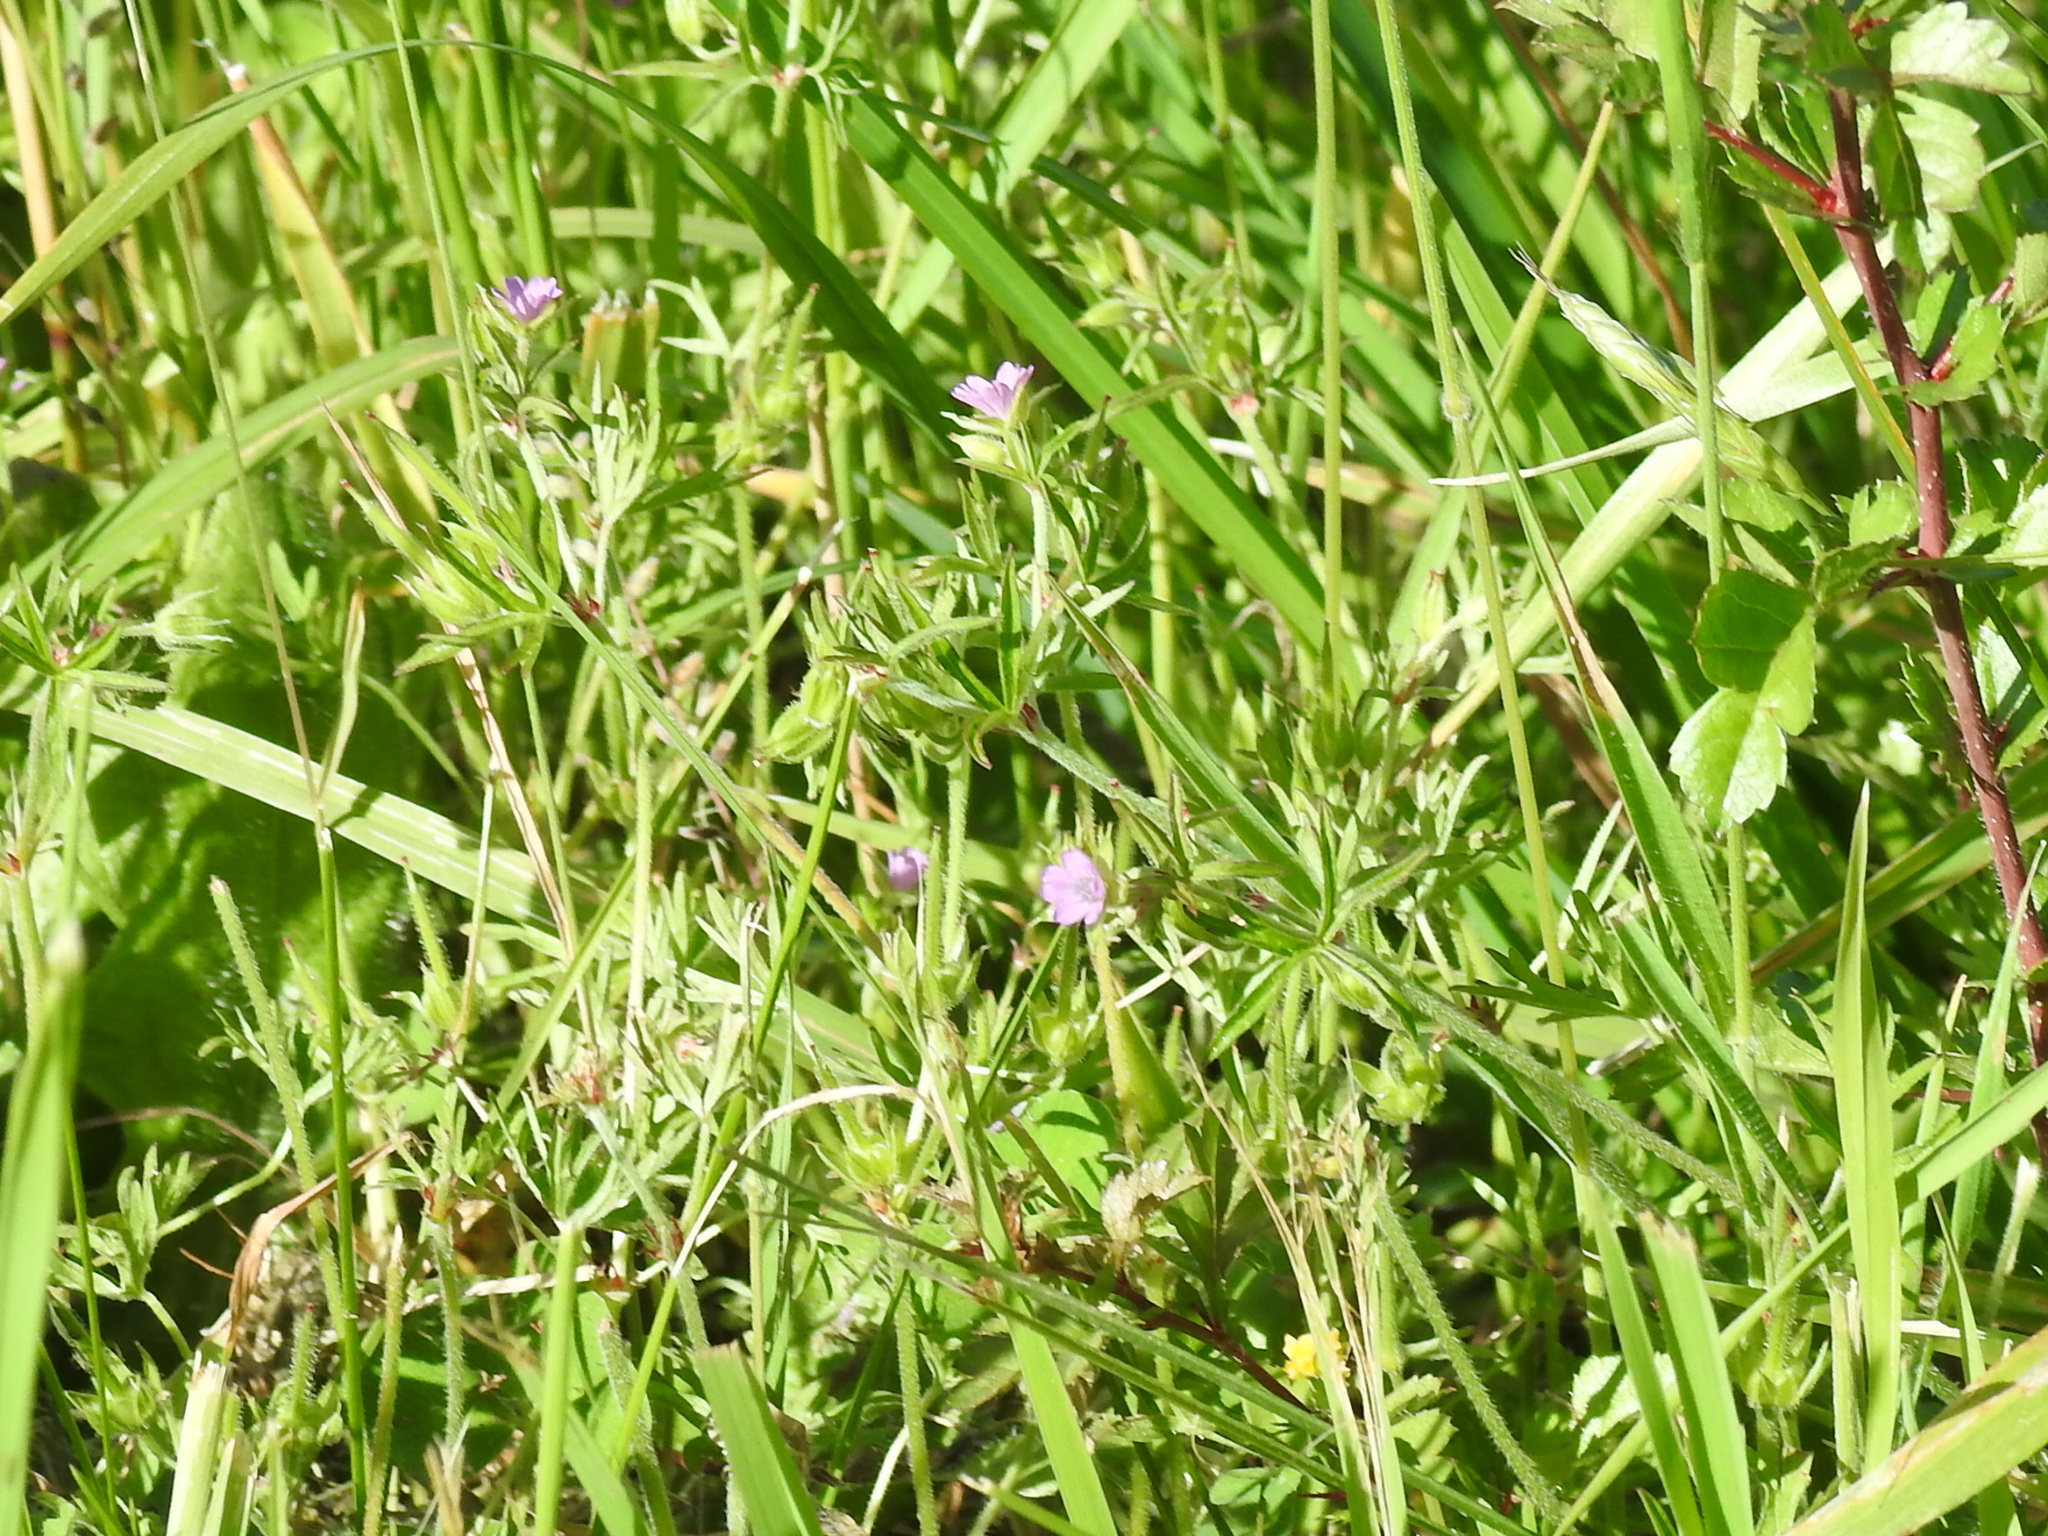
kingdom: Plantae
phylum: Tracheophyta
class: Magnoliopsida
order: Geraniales
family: Geraniaceae
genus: Geranium
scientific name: Geranium dissectum
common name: Cut-leaved crane's-bill
